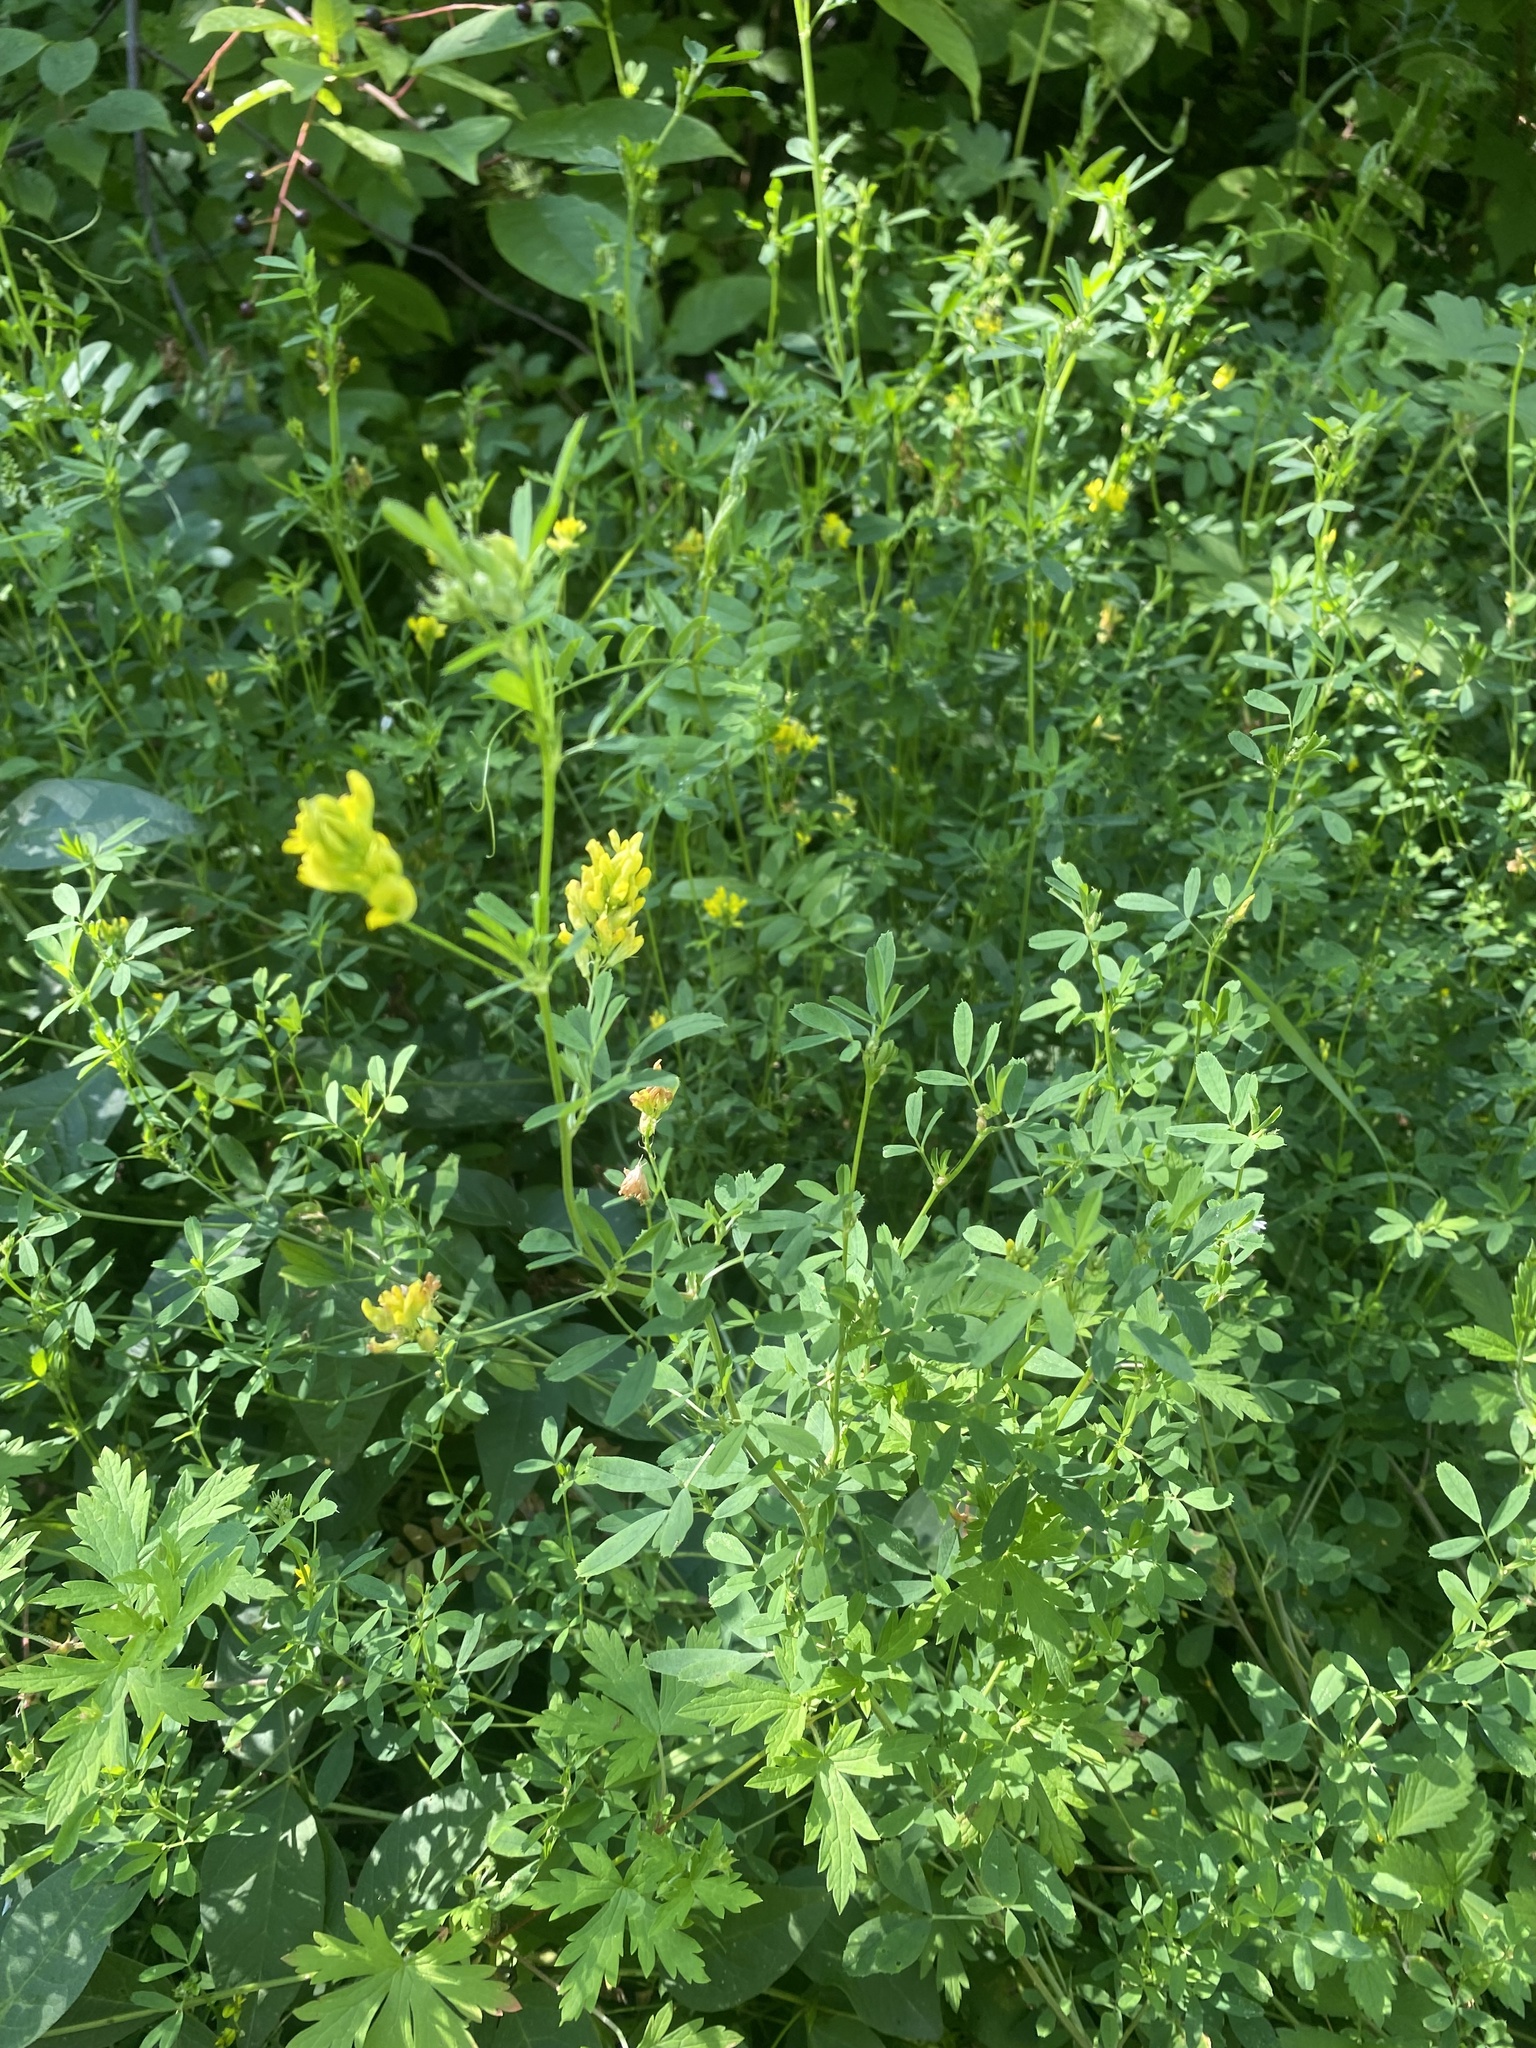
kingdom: Plantae
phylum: Tracheophyta
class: Magnoliopsida
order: Fabales
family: Fabaceae
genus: Medicago
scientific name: Medicago falcata
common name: Sickle medick
